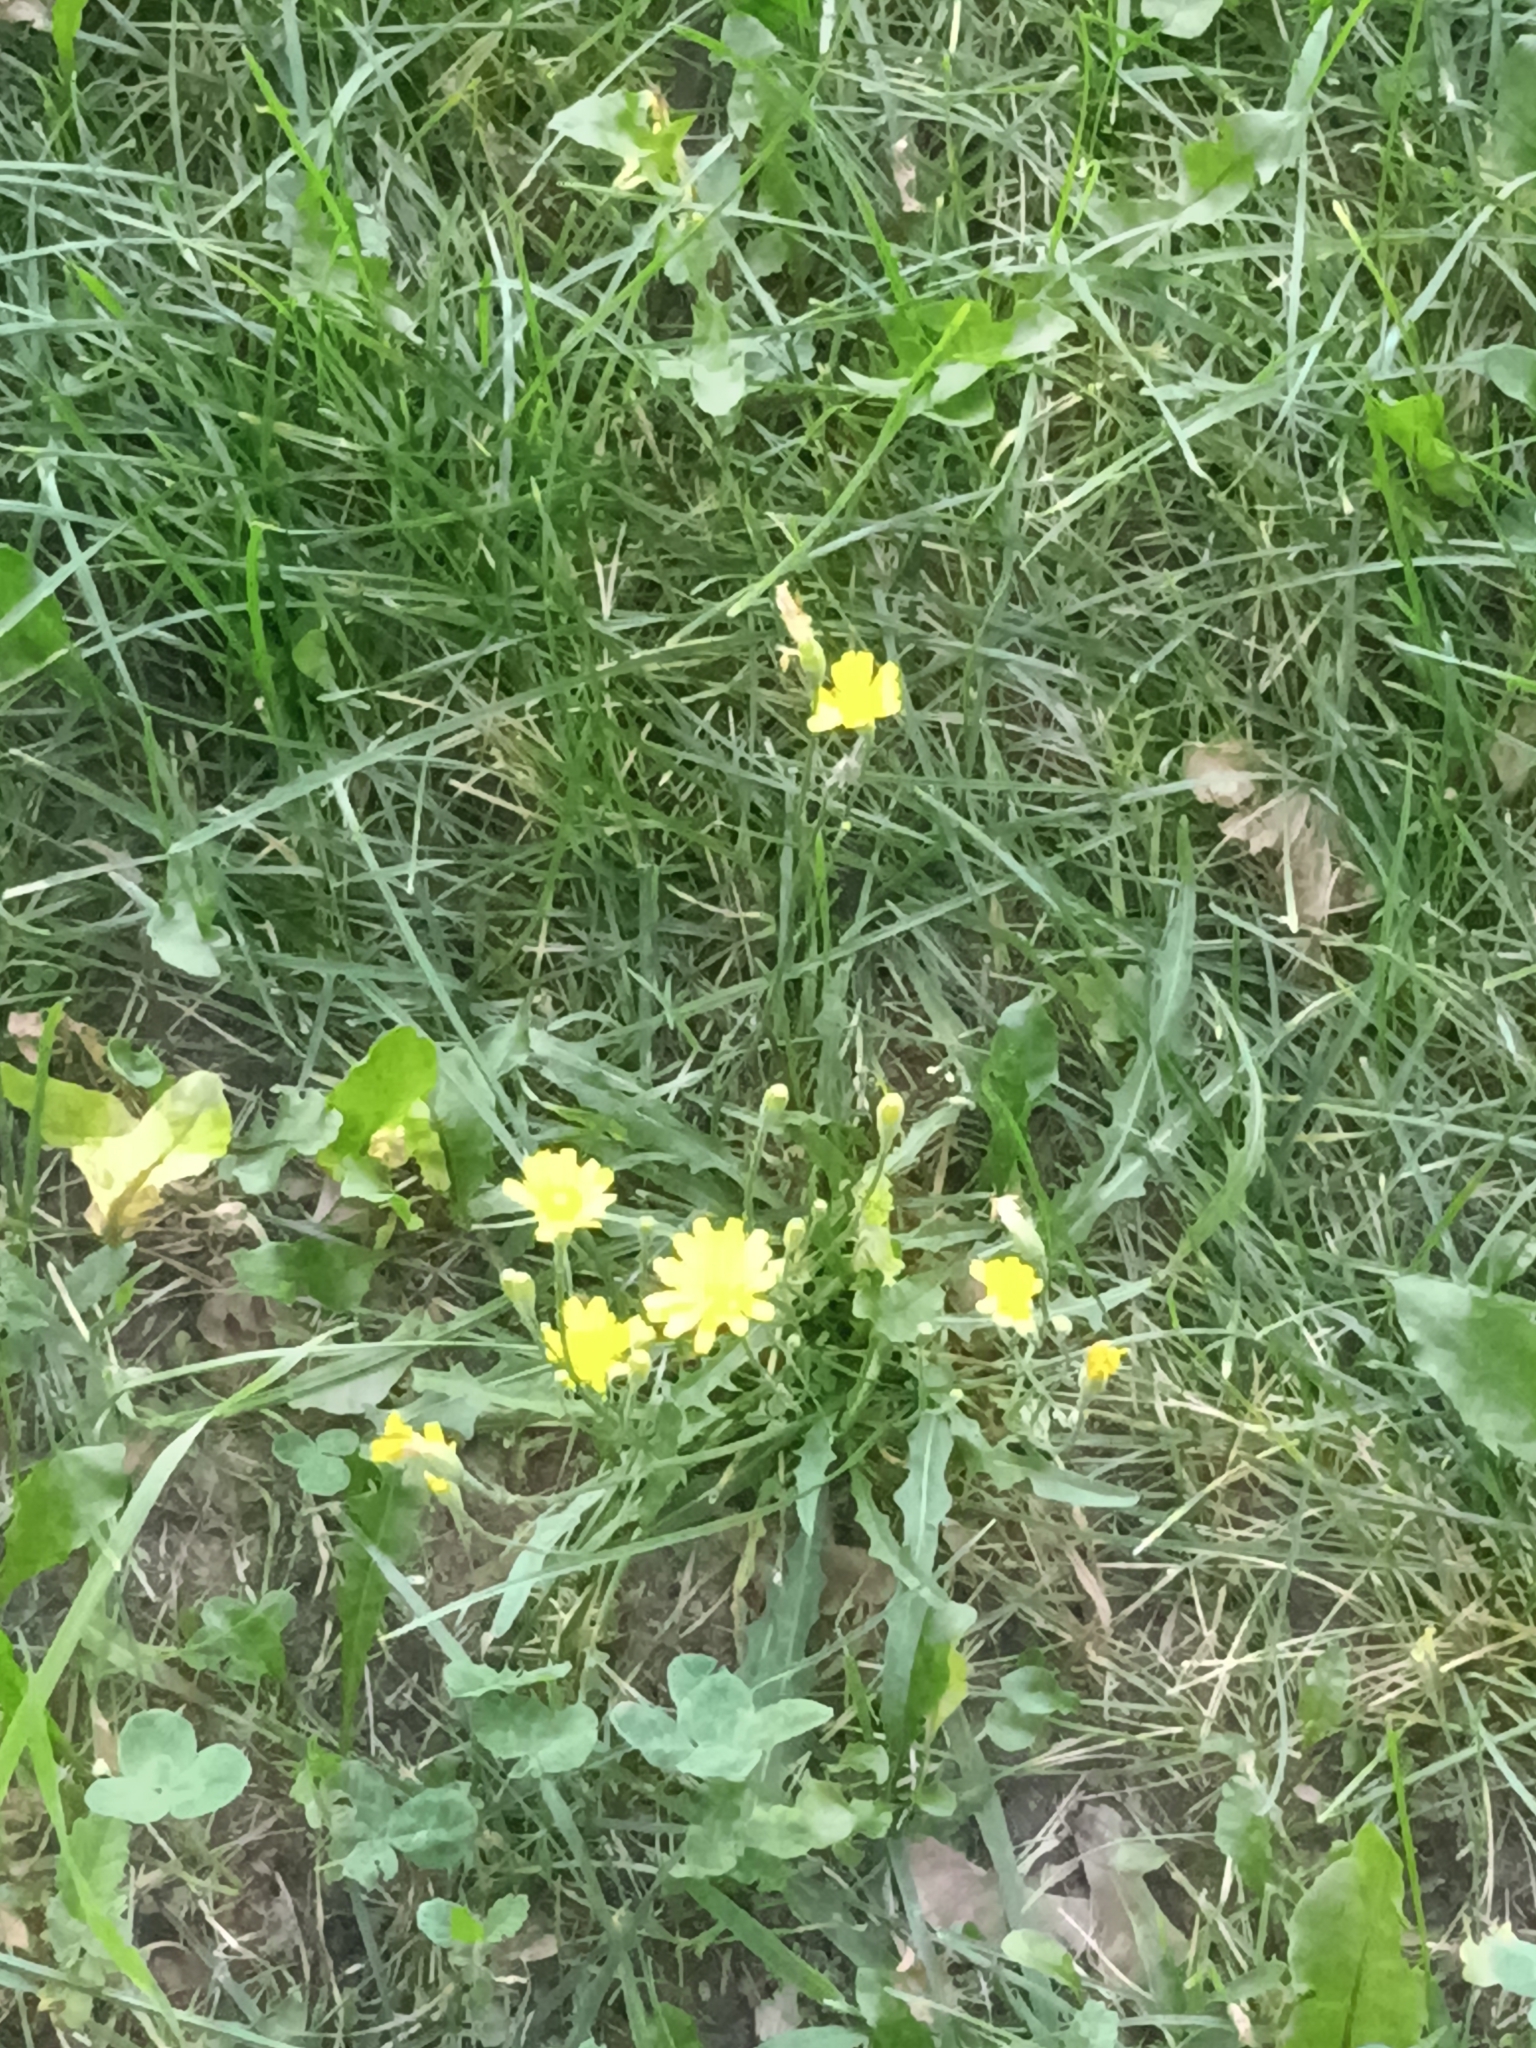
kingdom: Plantae
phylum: Tracheophyta
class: Magnoliopsida
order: Asterales
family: Asteraceae
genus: Scorzoneroides
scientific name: Scorzoneroides autumnalis
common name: Autumn hawkbit
